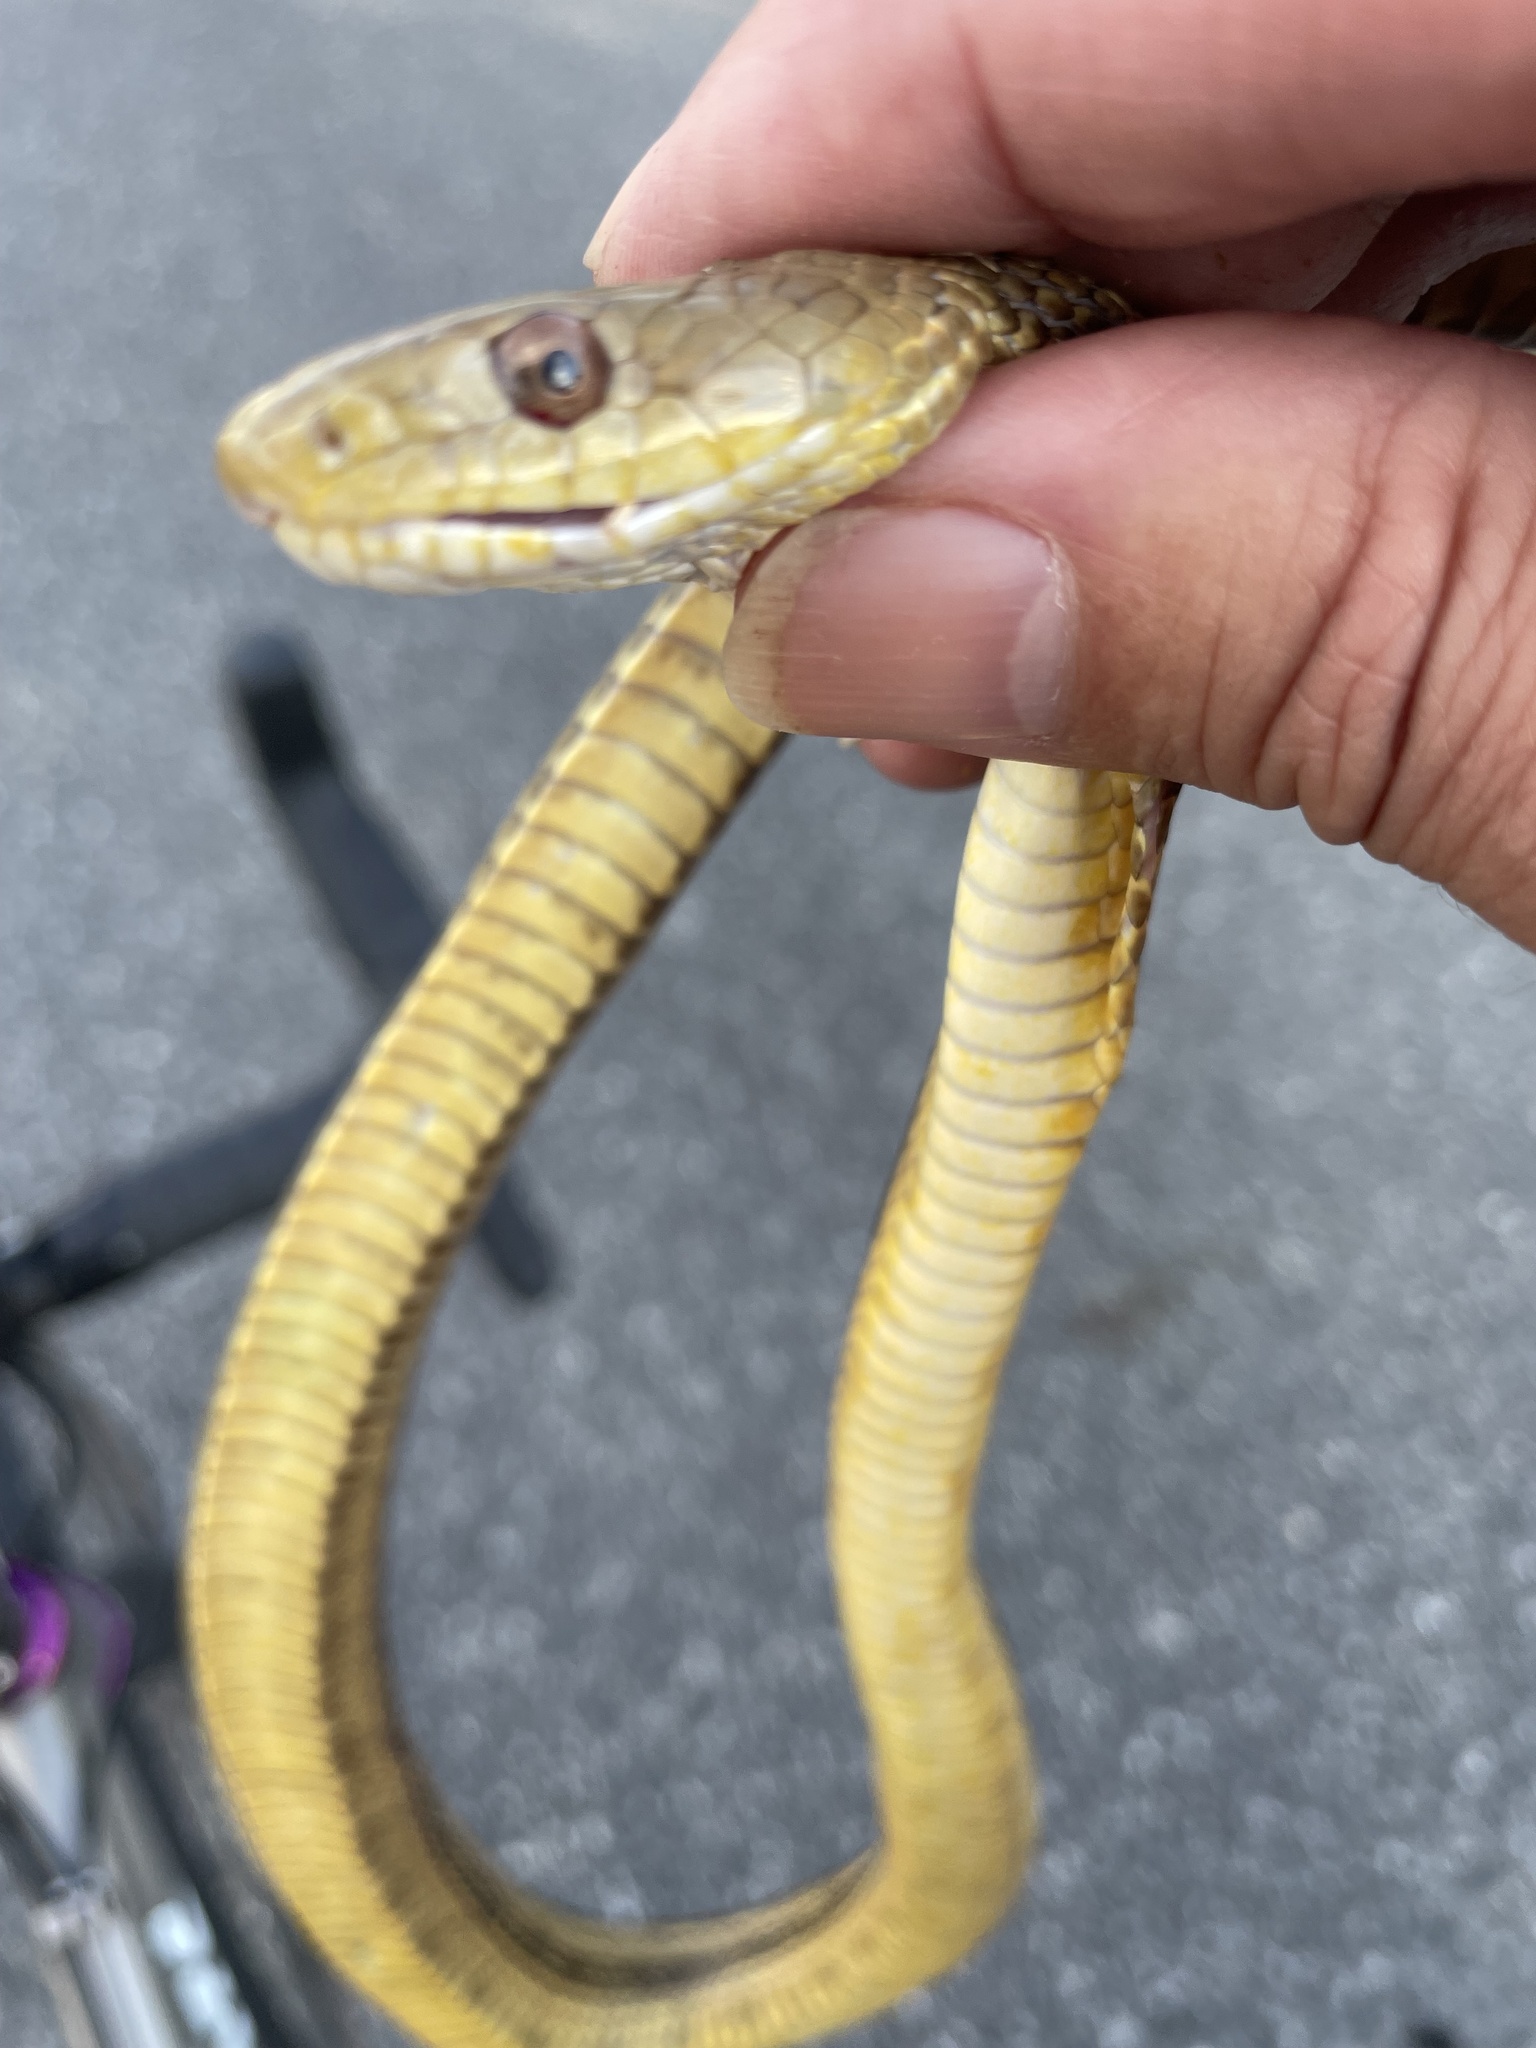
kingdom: Animalia
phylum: Chordata
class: Squamata
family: Colubridae
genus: Pantherophis
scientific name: Pantherophis alleghaniensis
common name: Eastern rat snake
